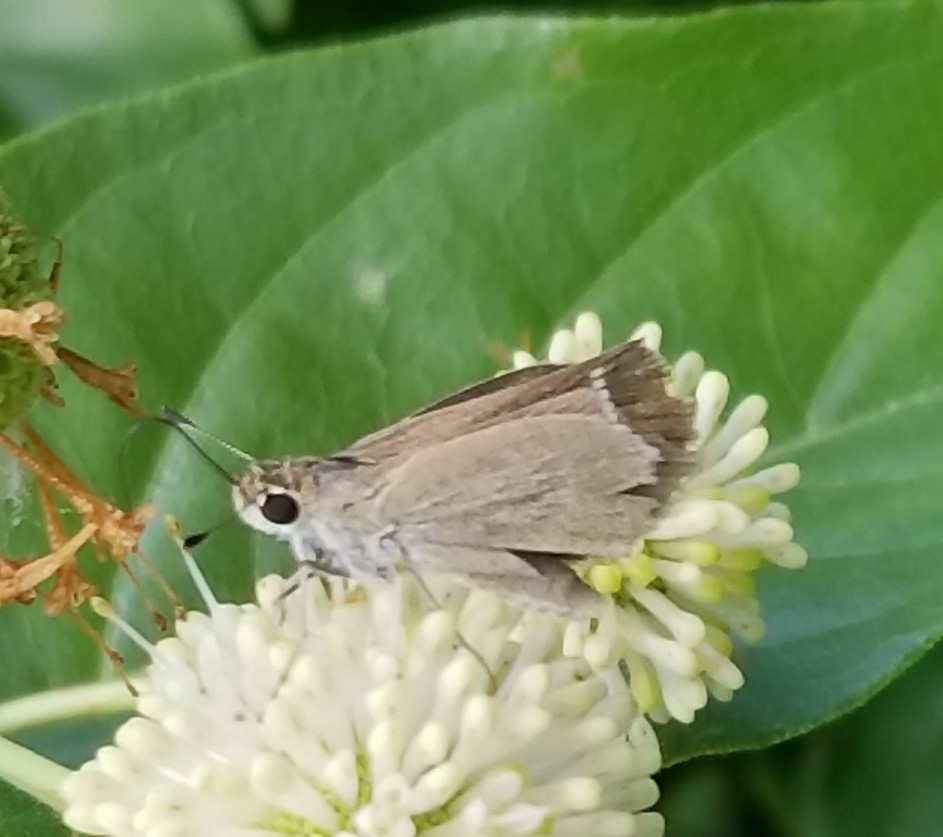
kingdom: Animalia
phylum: Arthropoda
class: Insecta
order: Lepidoptera
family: Hesperiidae
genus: Lerodea
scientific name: Lerodea eufala
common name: Eufala skipper
